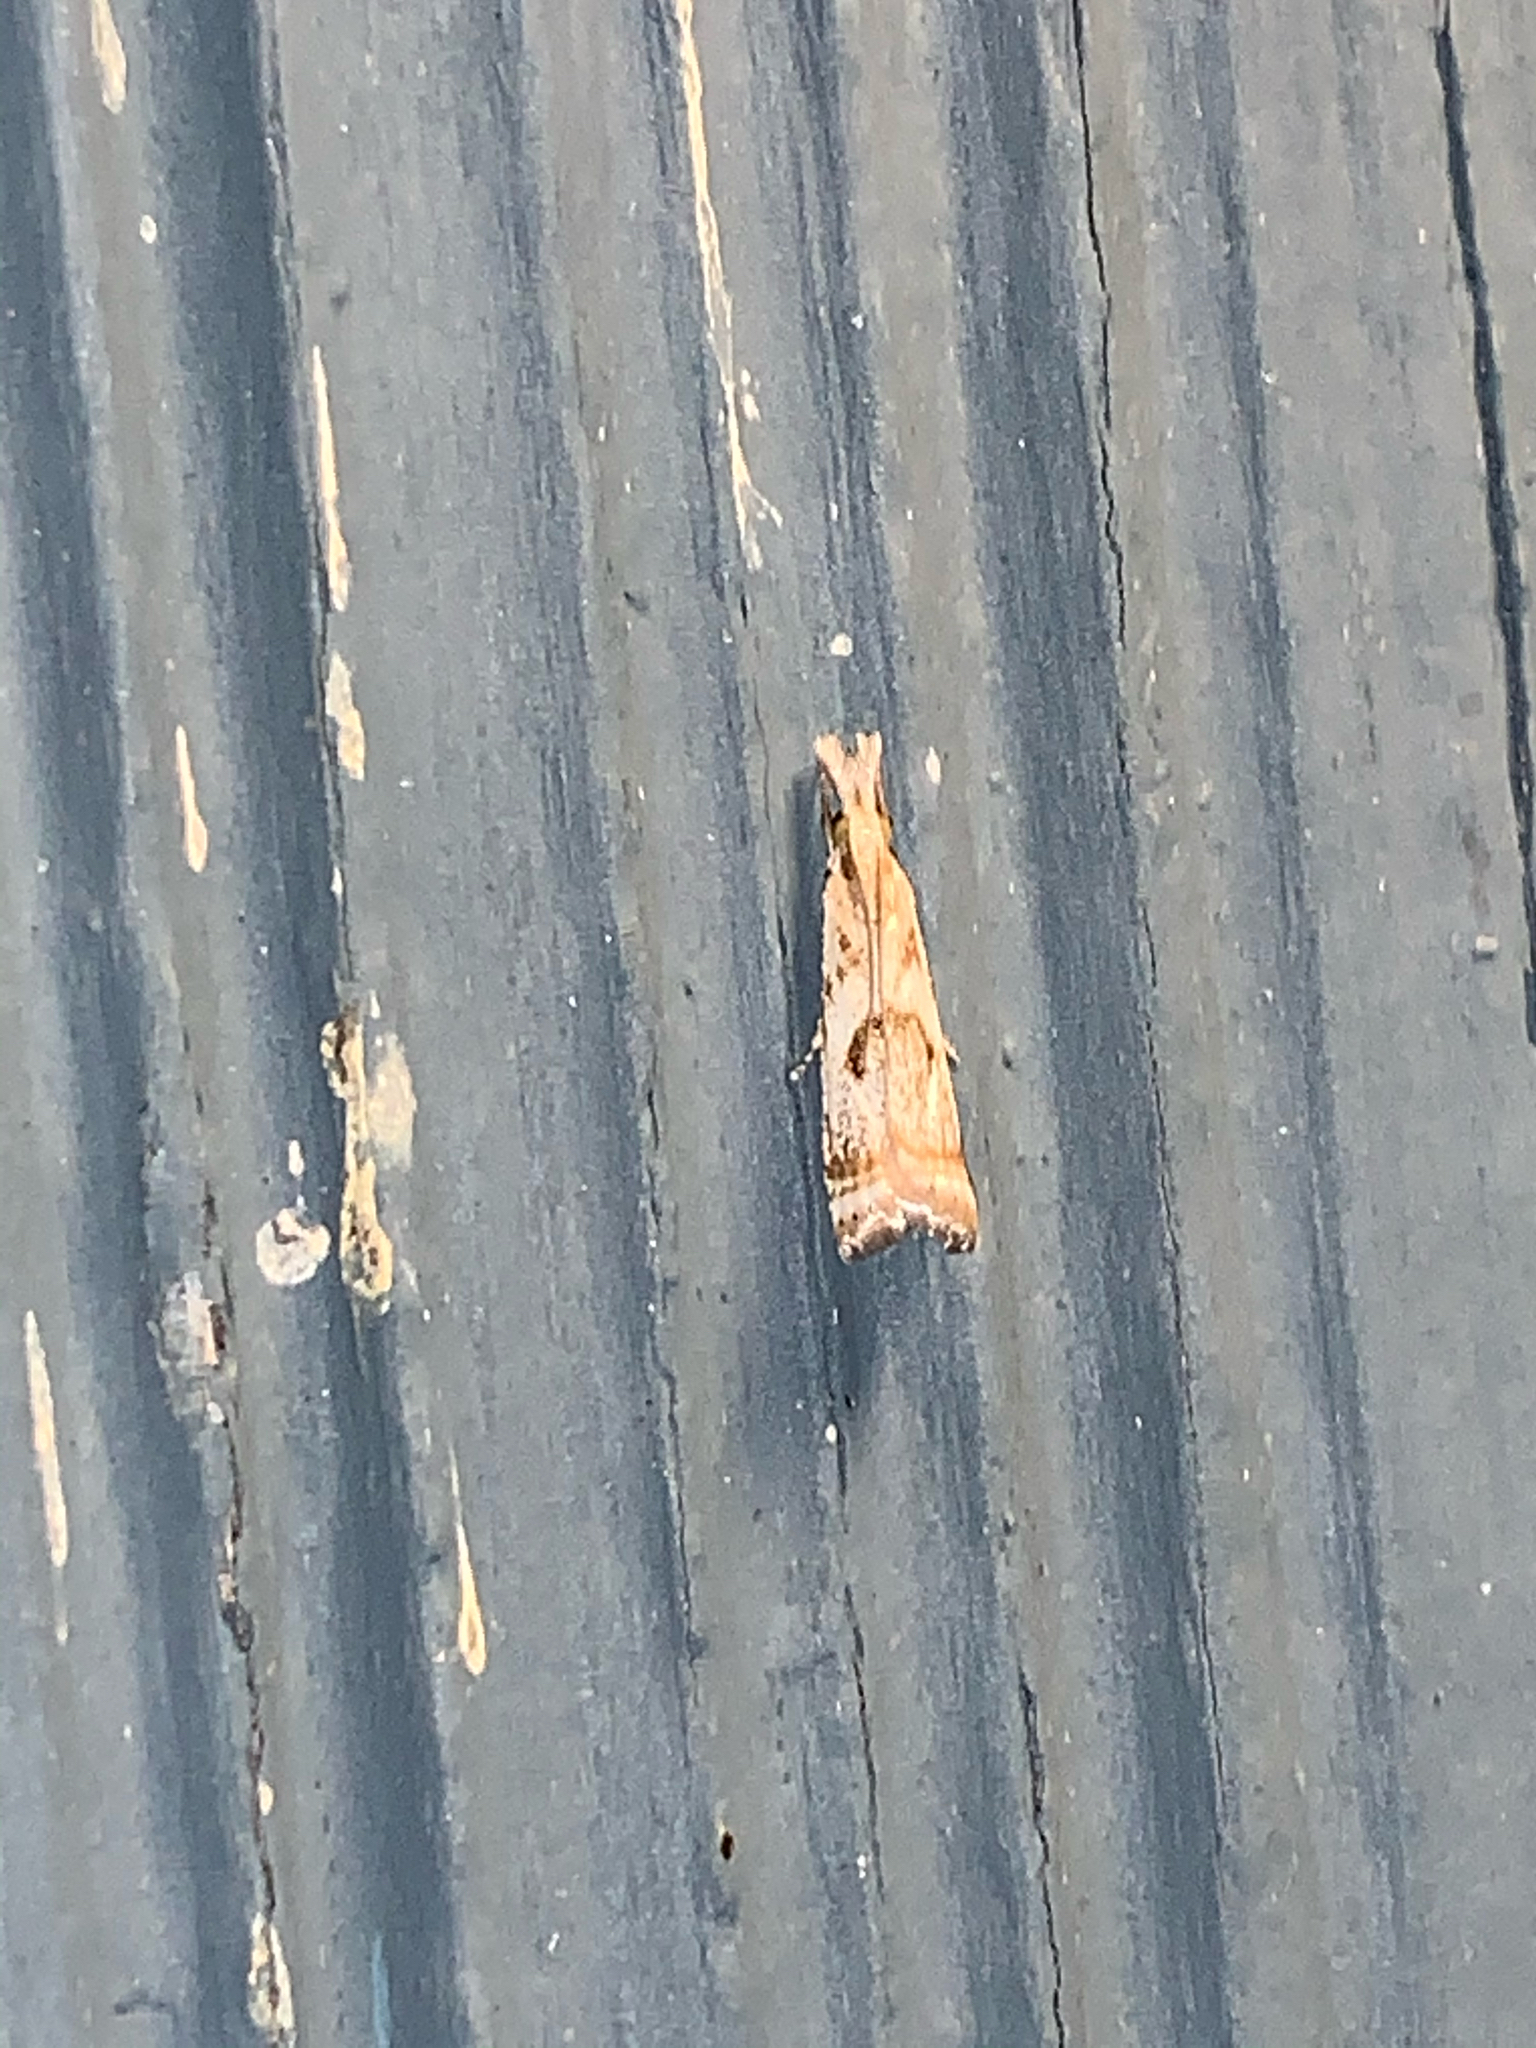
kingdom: Animalia
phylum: Arthropoda
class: Insecta
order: Lepidoptera
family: Crambidae
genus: Microcrambus
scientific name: Microcrambus elegans
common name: Elegant grass-veneer
